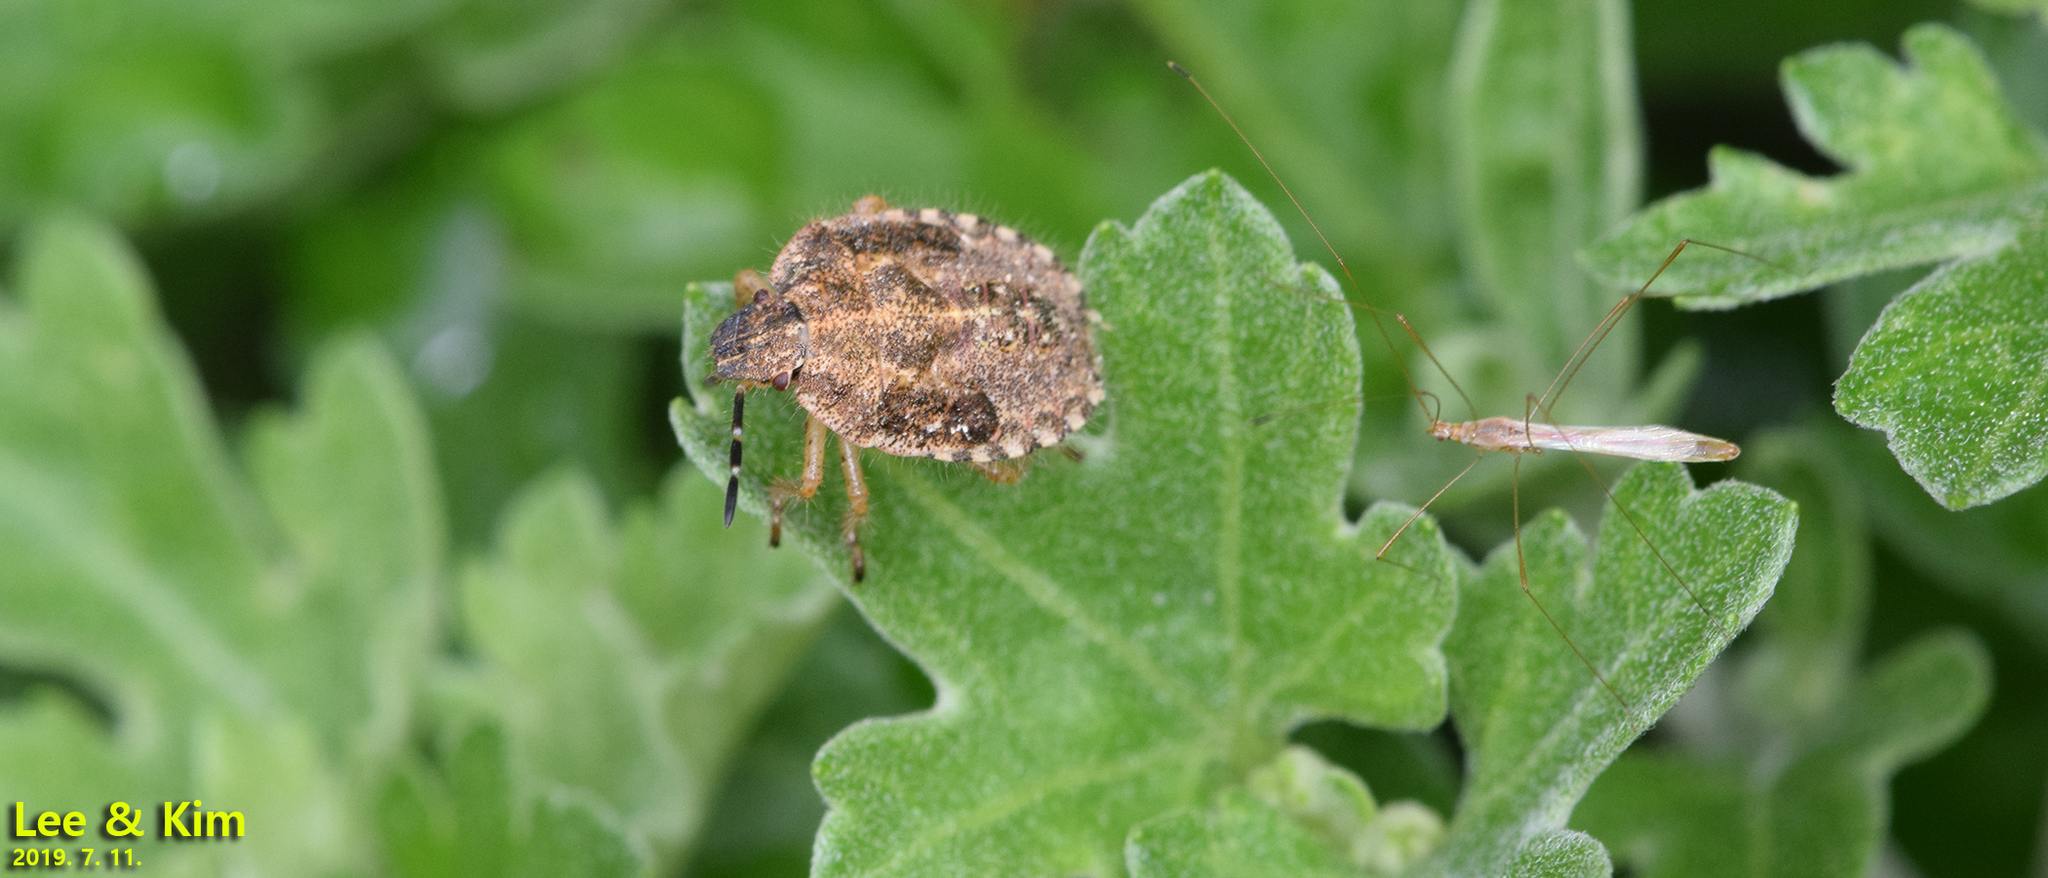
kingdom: Animalia
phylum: Arthropoda
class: Insecta
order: Hemiptera
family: Pentatomidae
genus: Dolycoris
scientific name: Dolycoris baccarum
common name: Sloe bug
